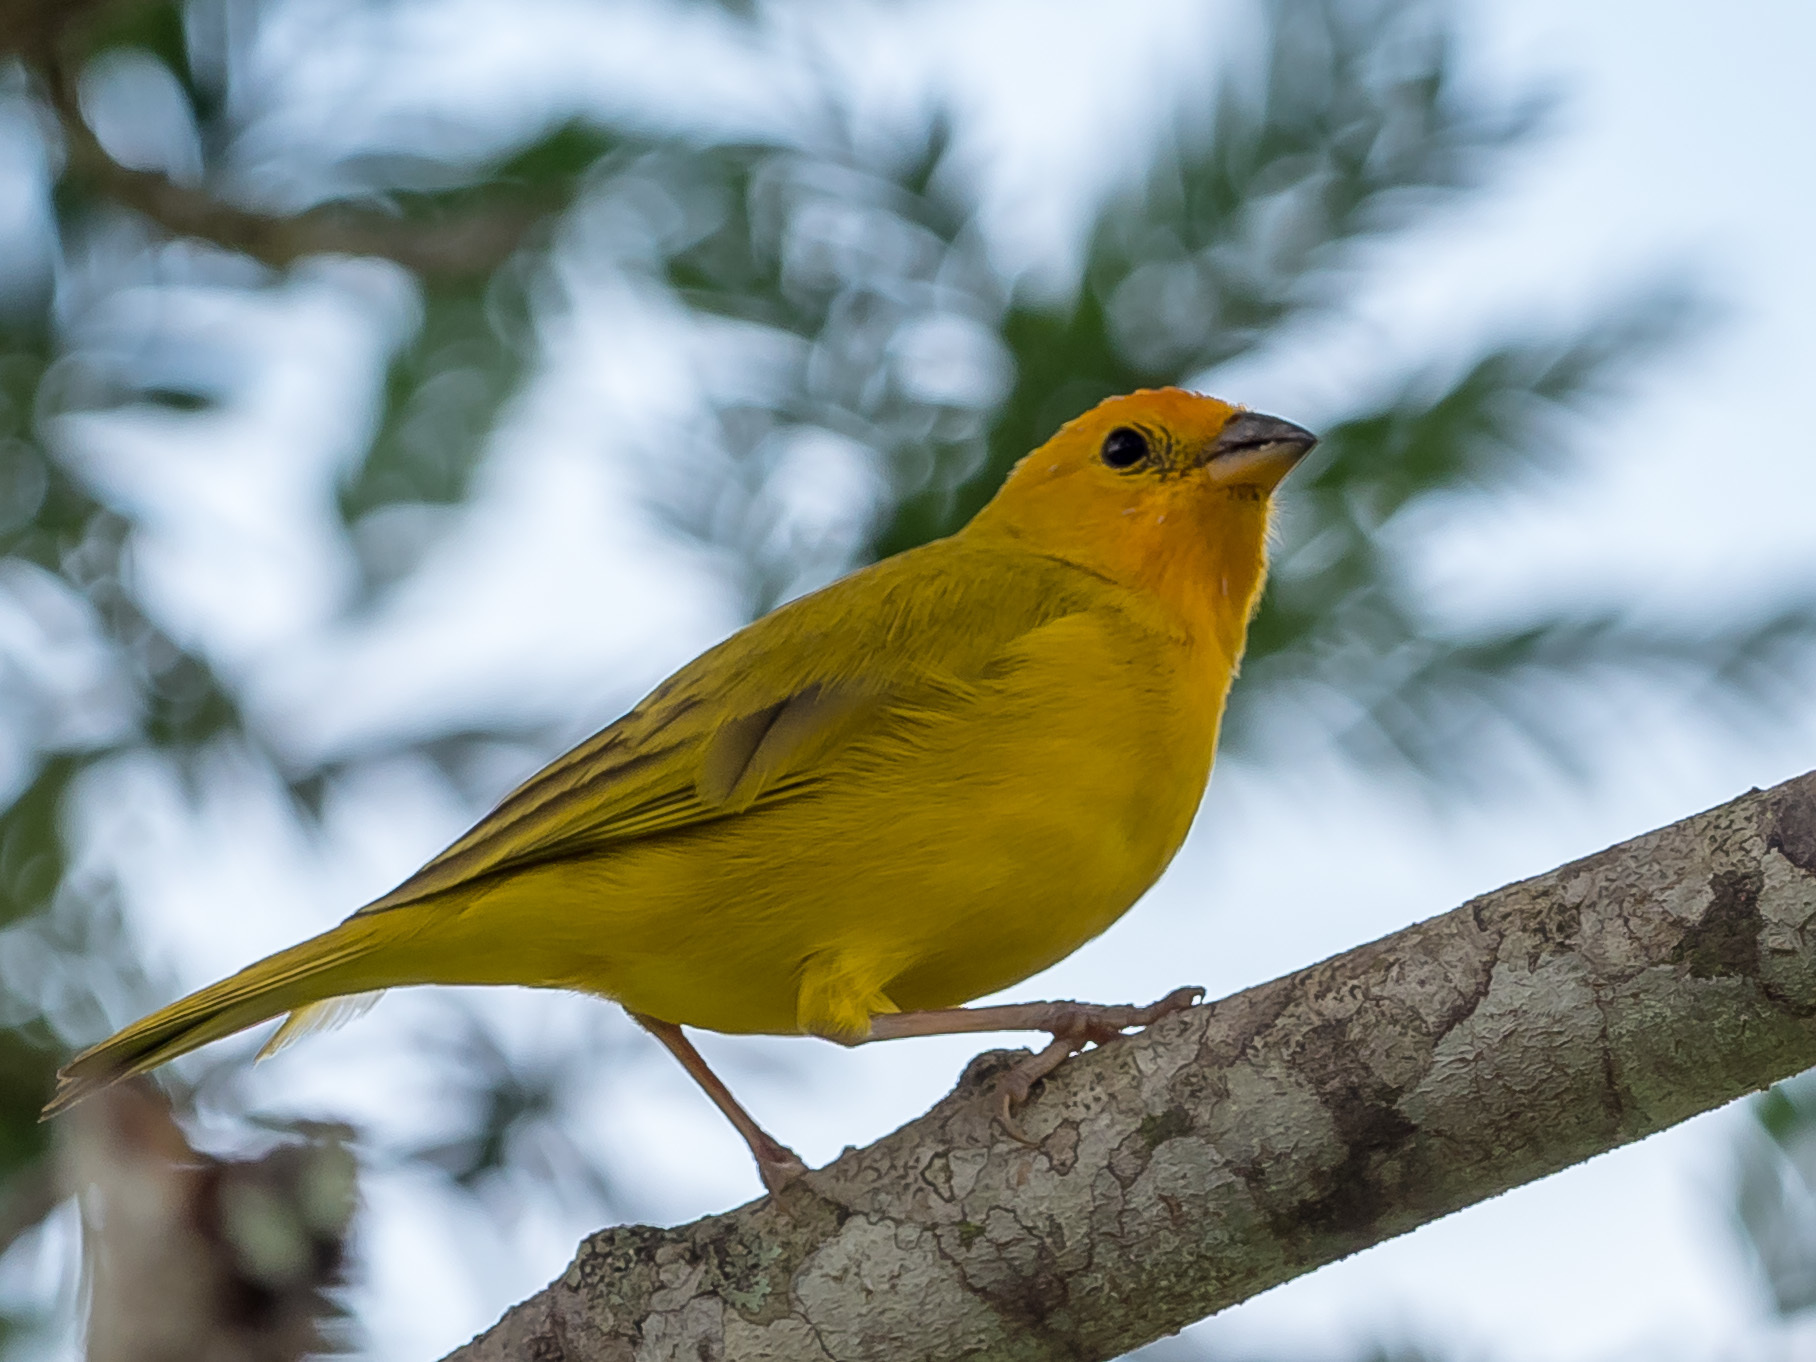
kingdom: Animalia
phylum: Chordata
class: Aves
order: Passeriformes
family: Thraupidae
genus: Sicalis
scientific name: Sicalis flaveola
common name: Saffron finch
